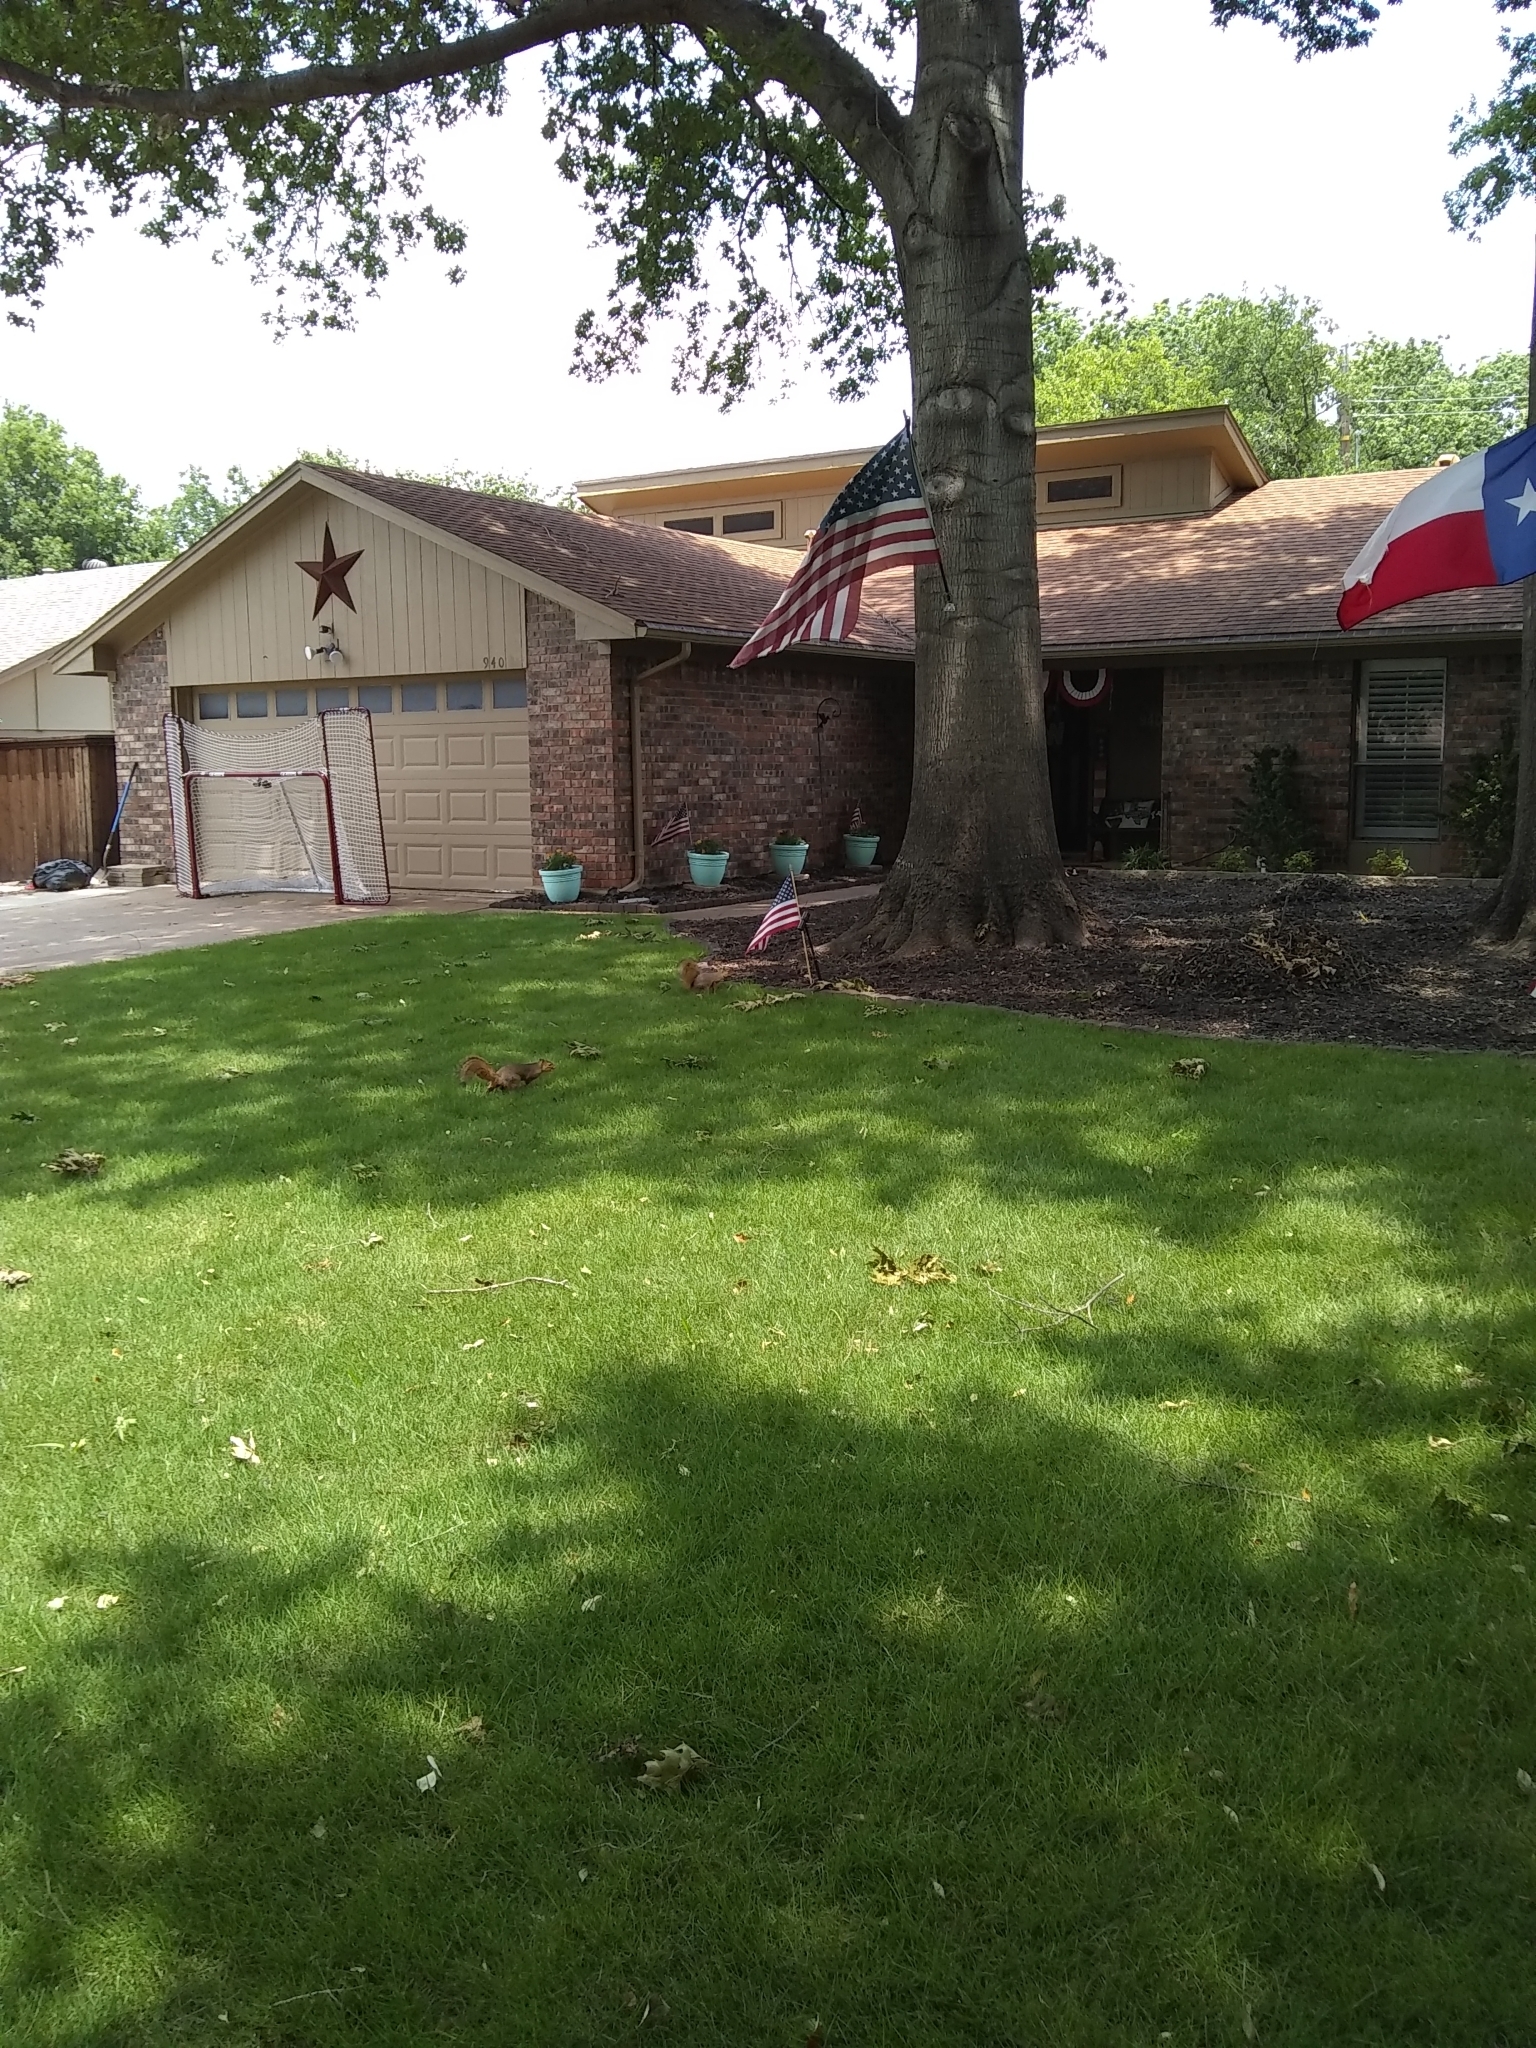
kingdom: Animalia
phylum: Chordata
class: Mammalia
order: Rodentia
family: Sciuridae
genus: Sciurus
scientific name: Sciurus niger
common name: Fox squirrel
